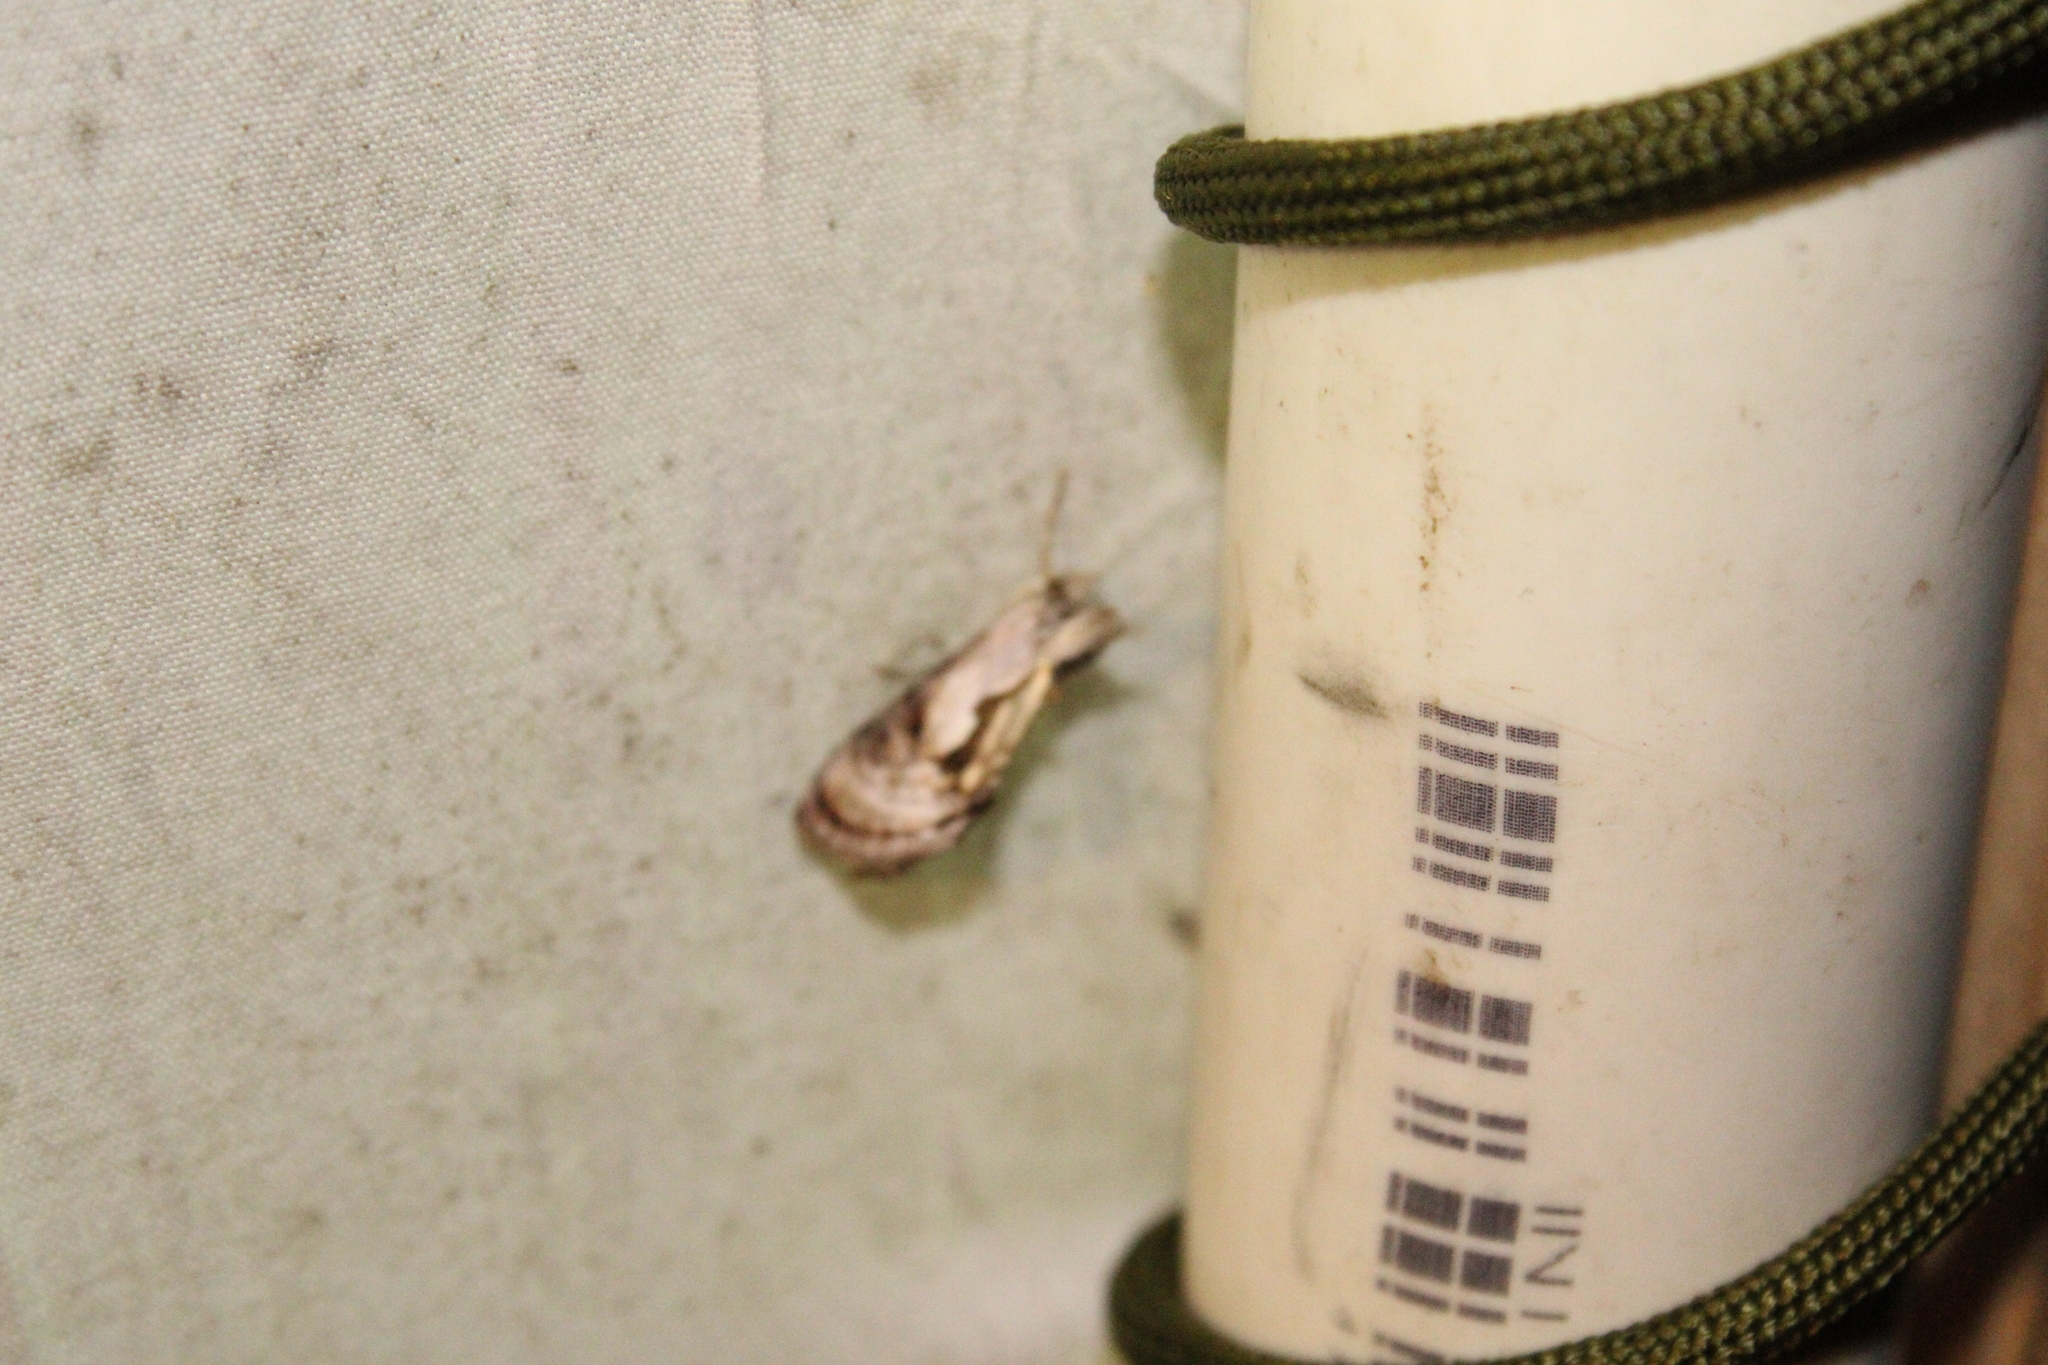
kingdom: Animalia
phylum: Arthropoda
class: Insecta
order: Lepidoptera
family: Noctuidae
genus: Chrysanympha
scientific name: Chrysanympha formosa
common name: Formosa looper moth
